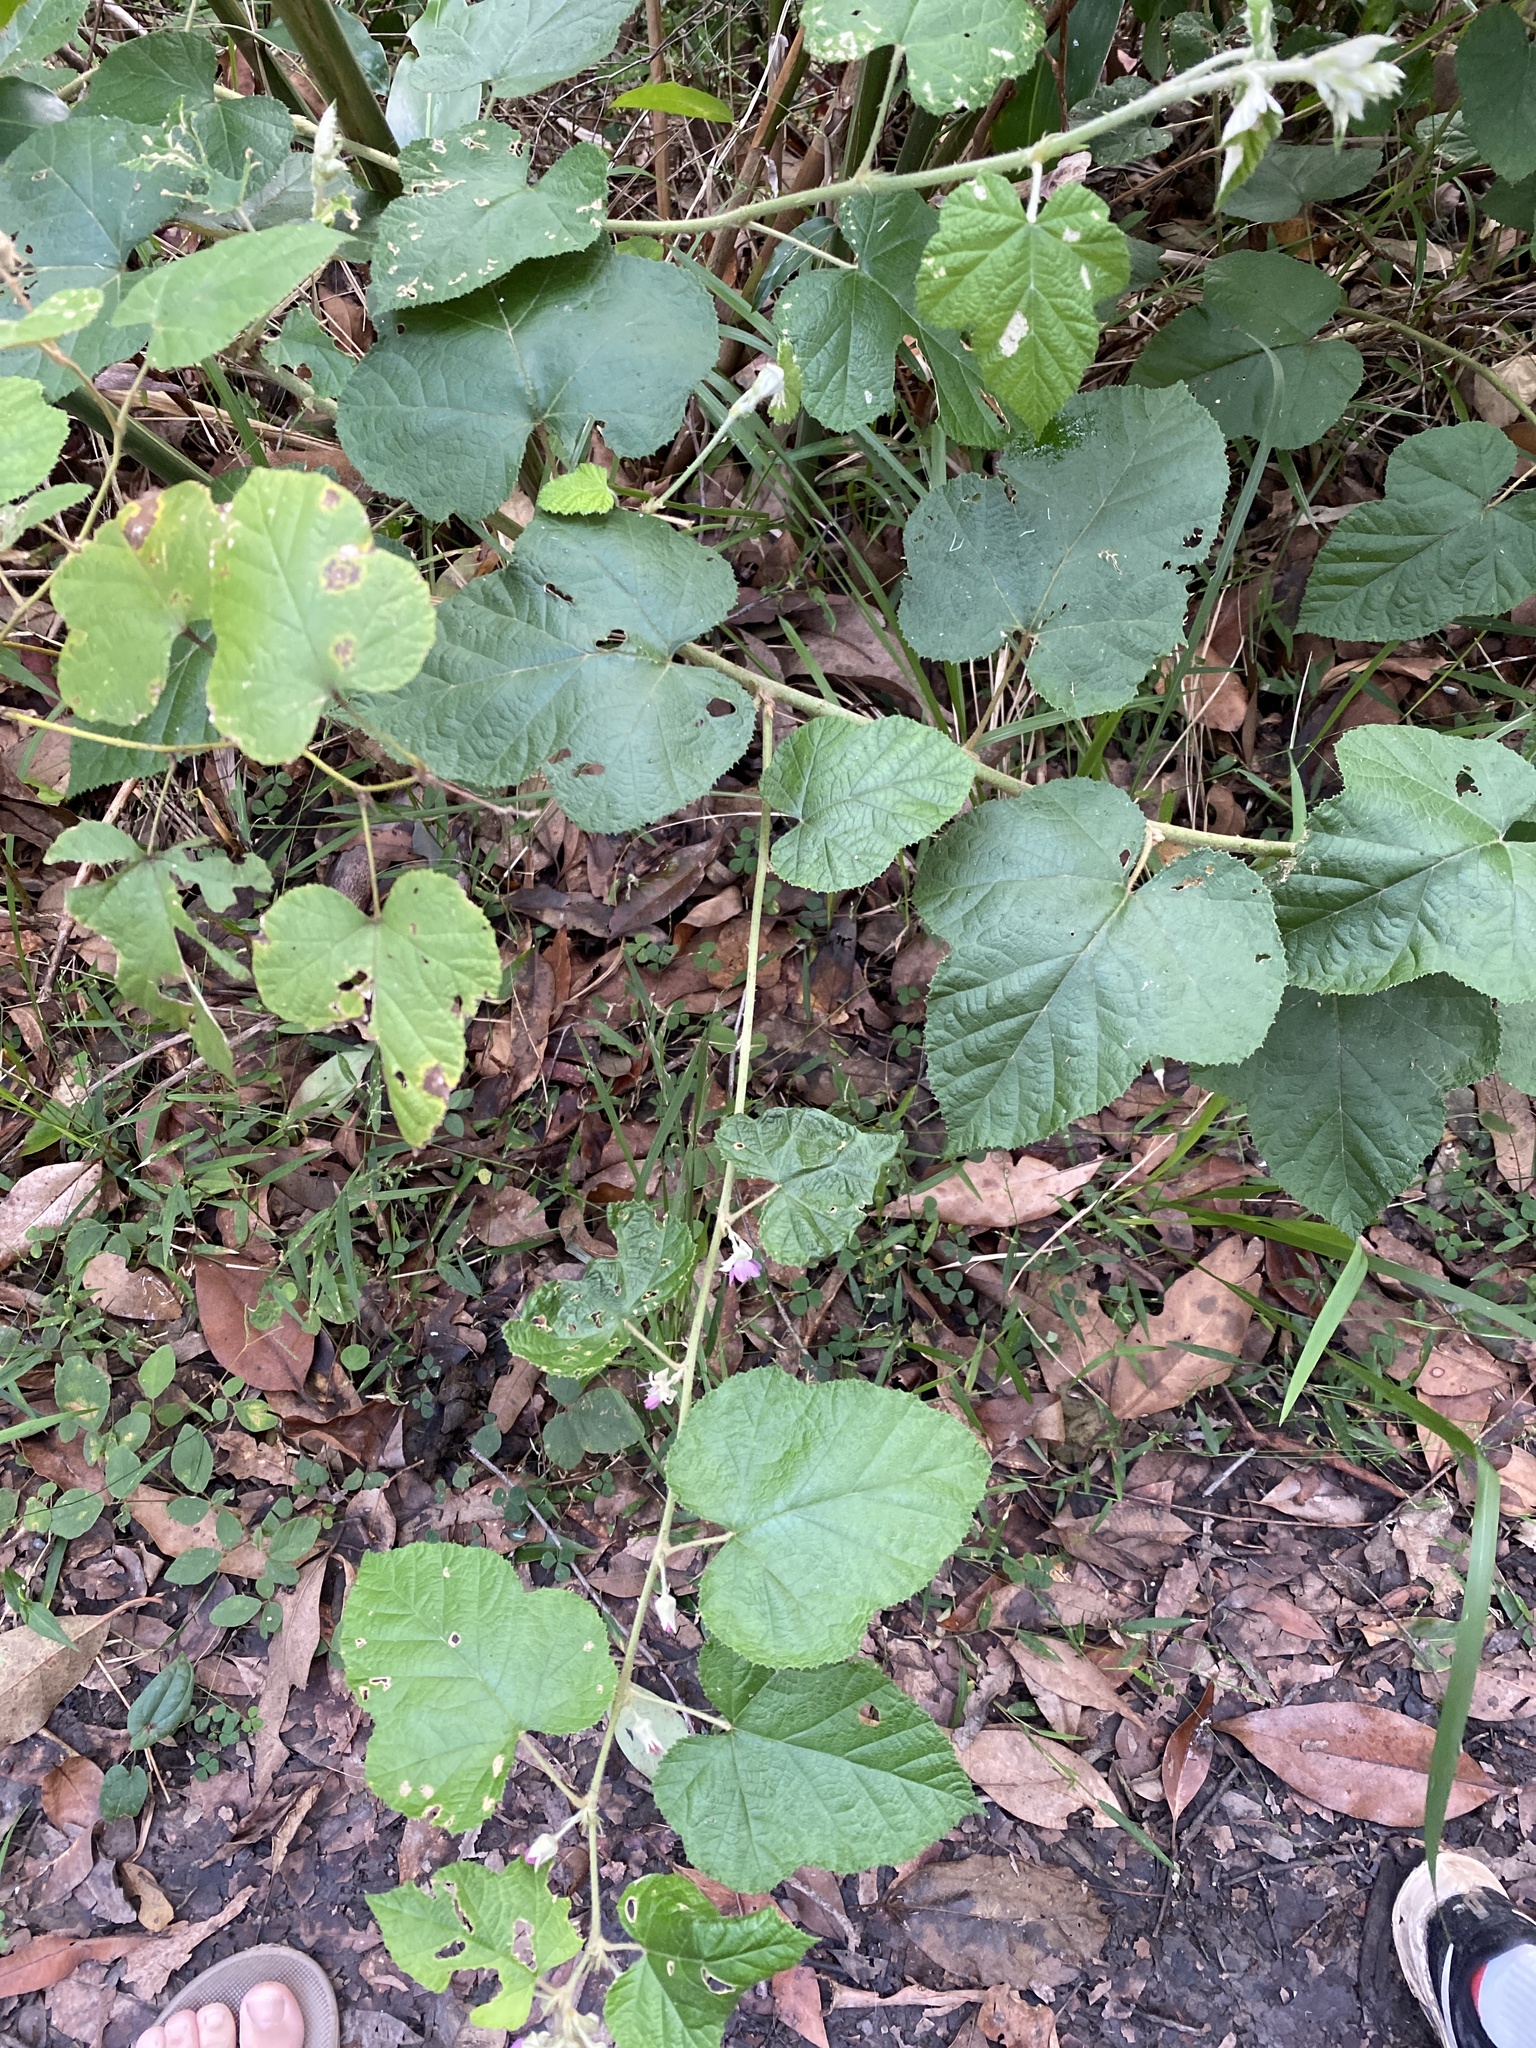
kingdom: Plantae
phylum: Tracheophyta
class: Magnoliopsida
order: Rosales
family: Rosaceae
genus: Rubus
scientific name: Rubus moluccanus
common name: Wild raspberry
